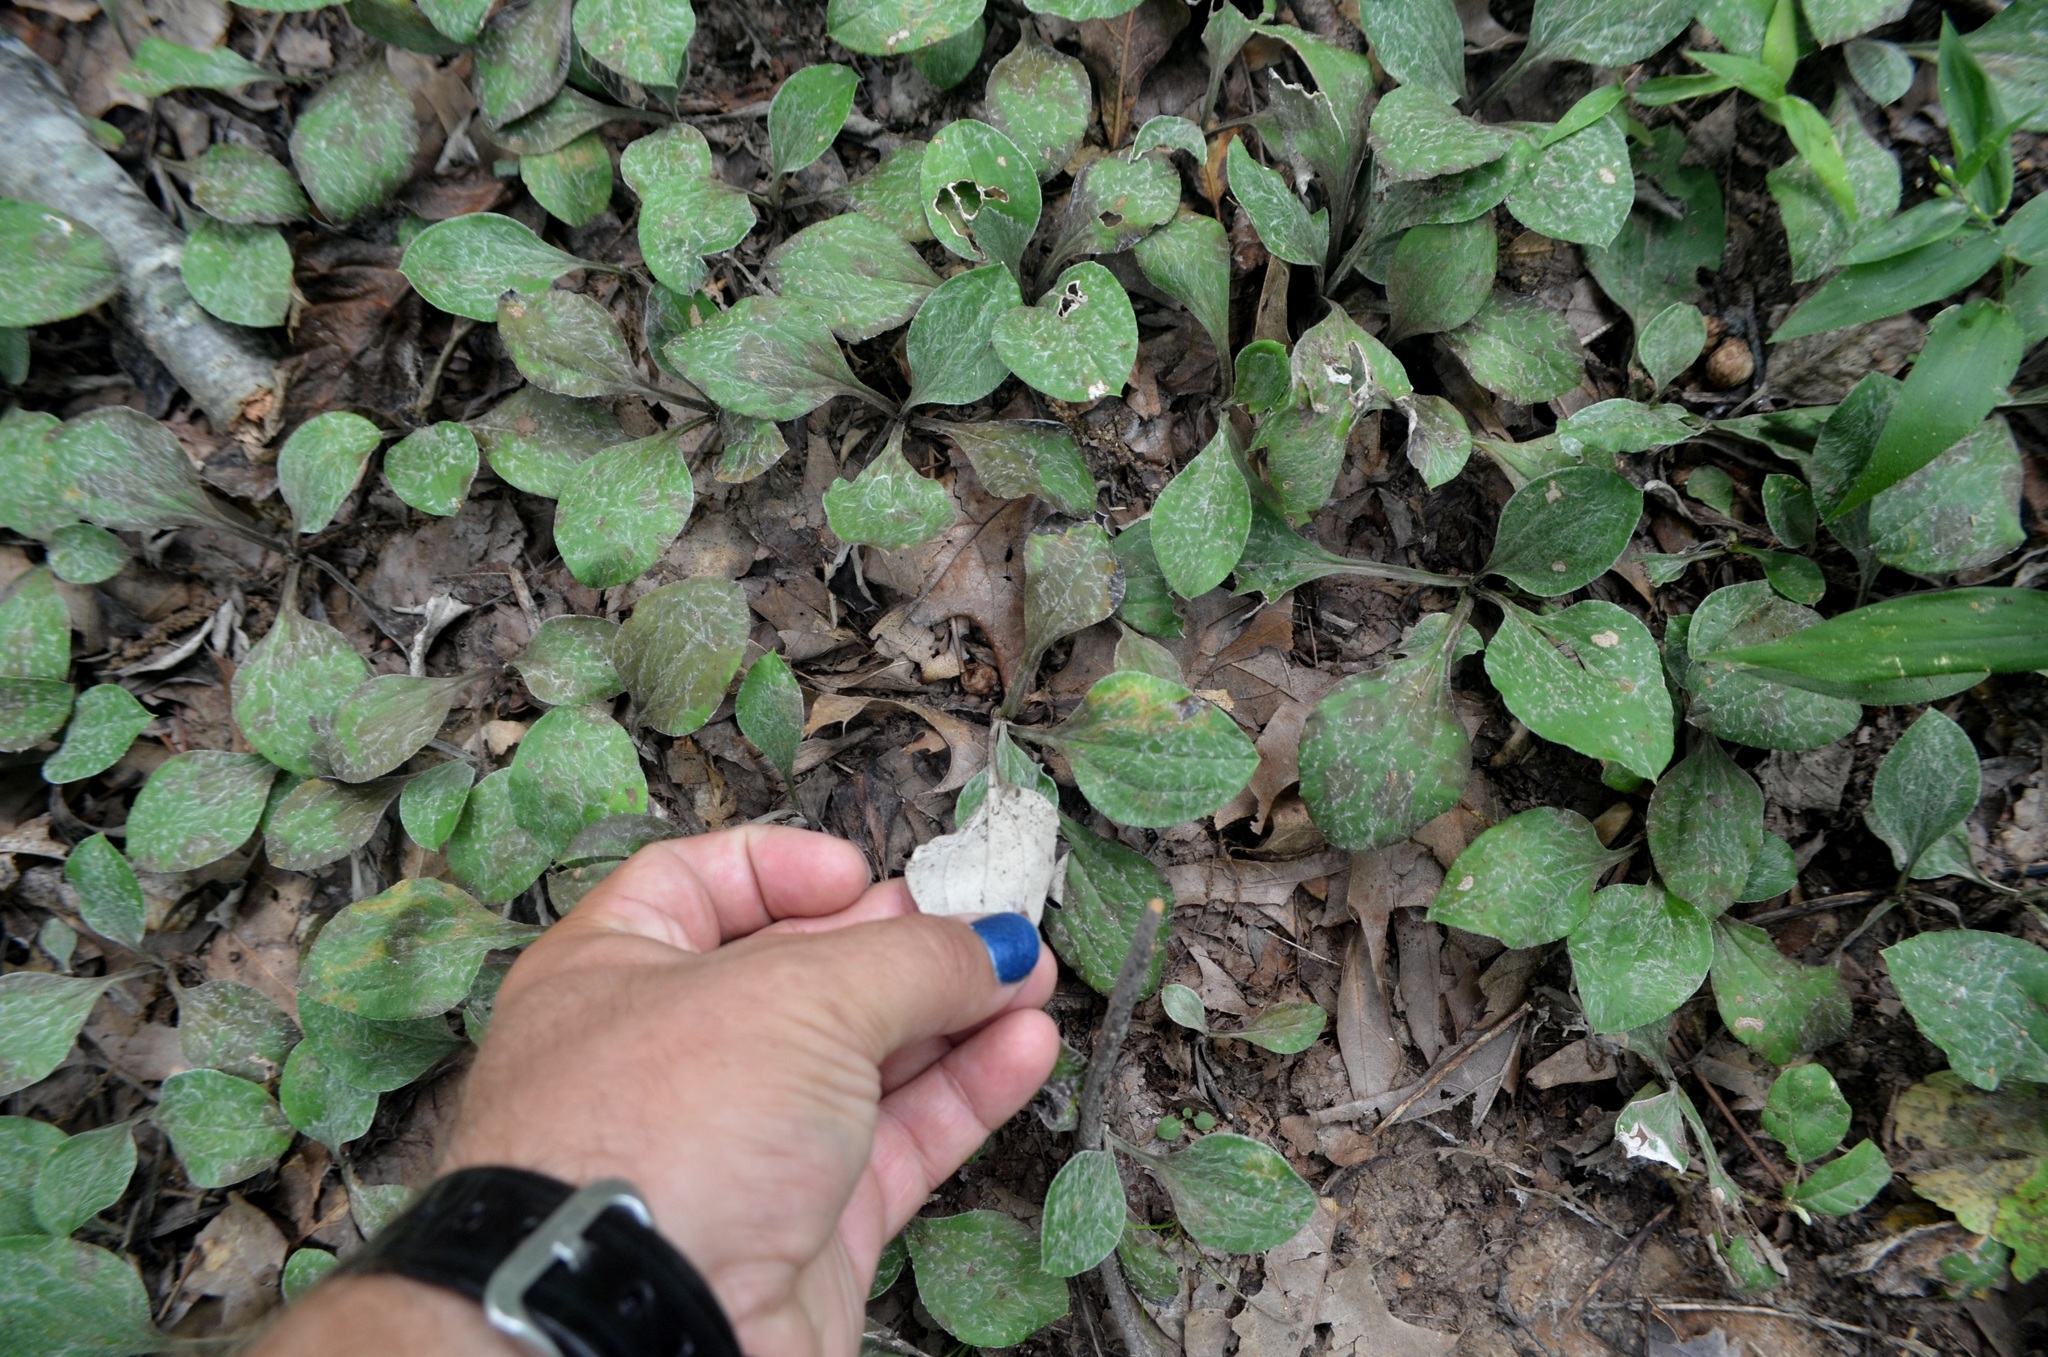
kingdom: Plantae
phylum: Tracheophyta
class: Magnoliopsida
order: Asterales
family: Asteraceae
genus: Antennaria
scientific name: Antennaria plantaginifolia
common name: Plantain-leaved pussytoes
